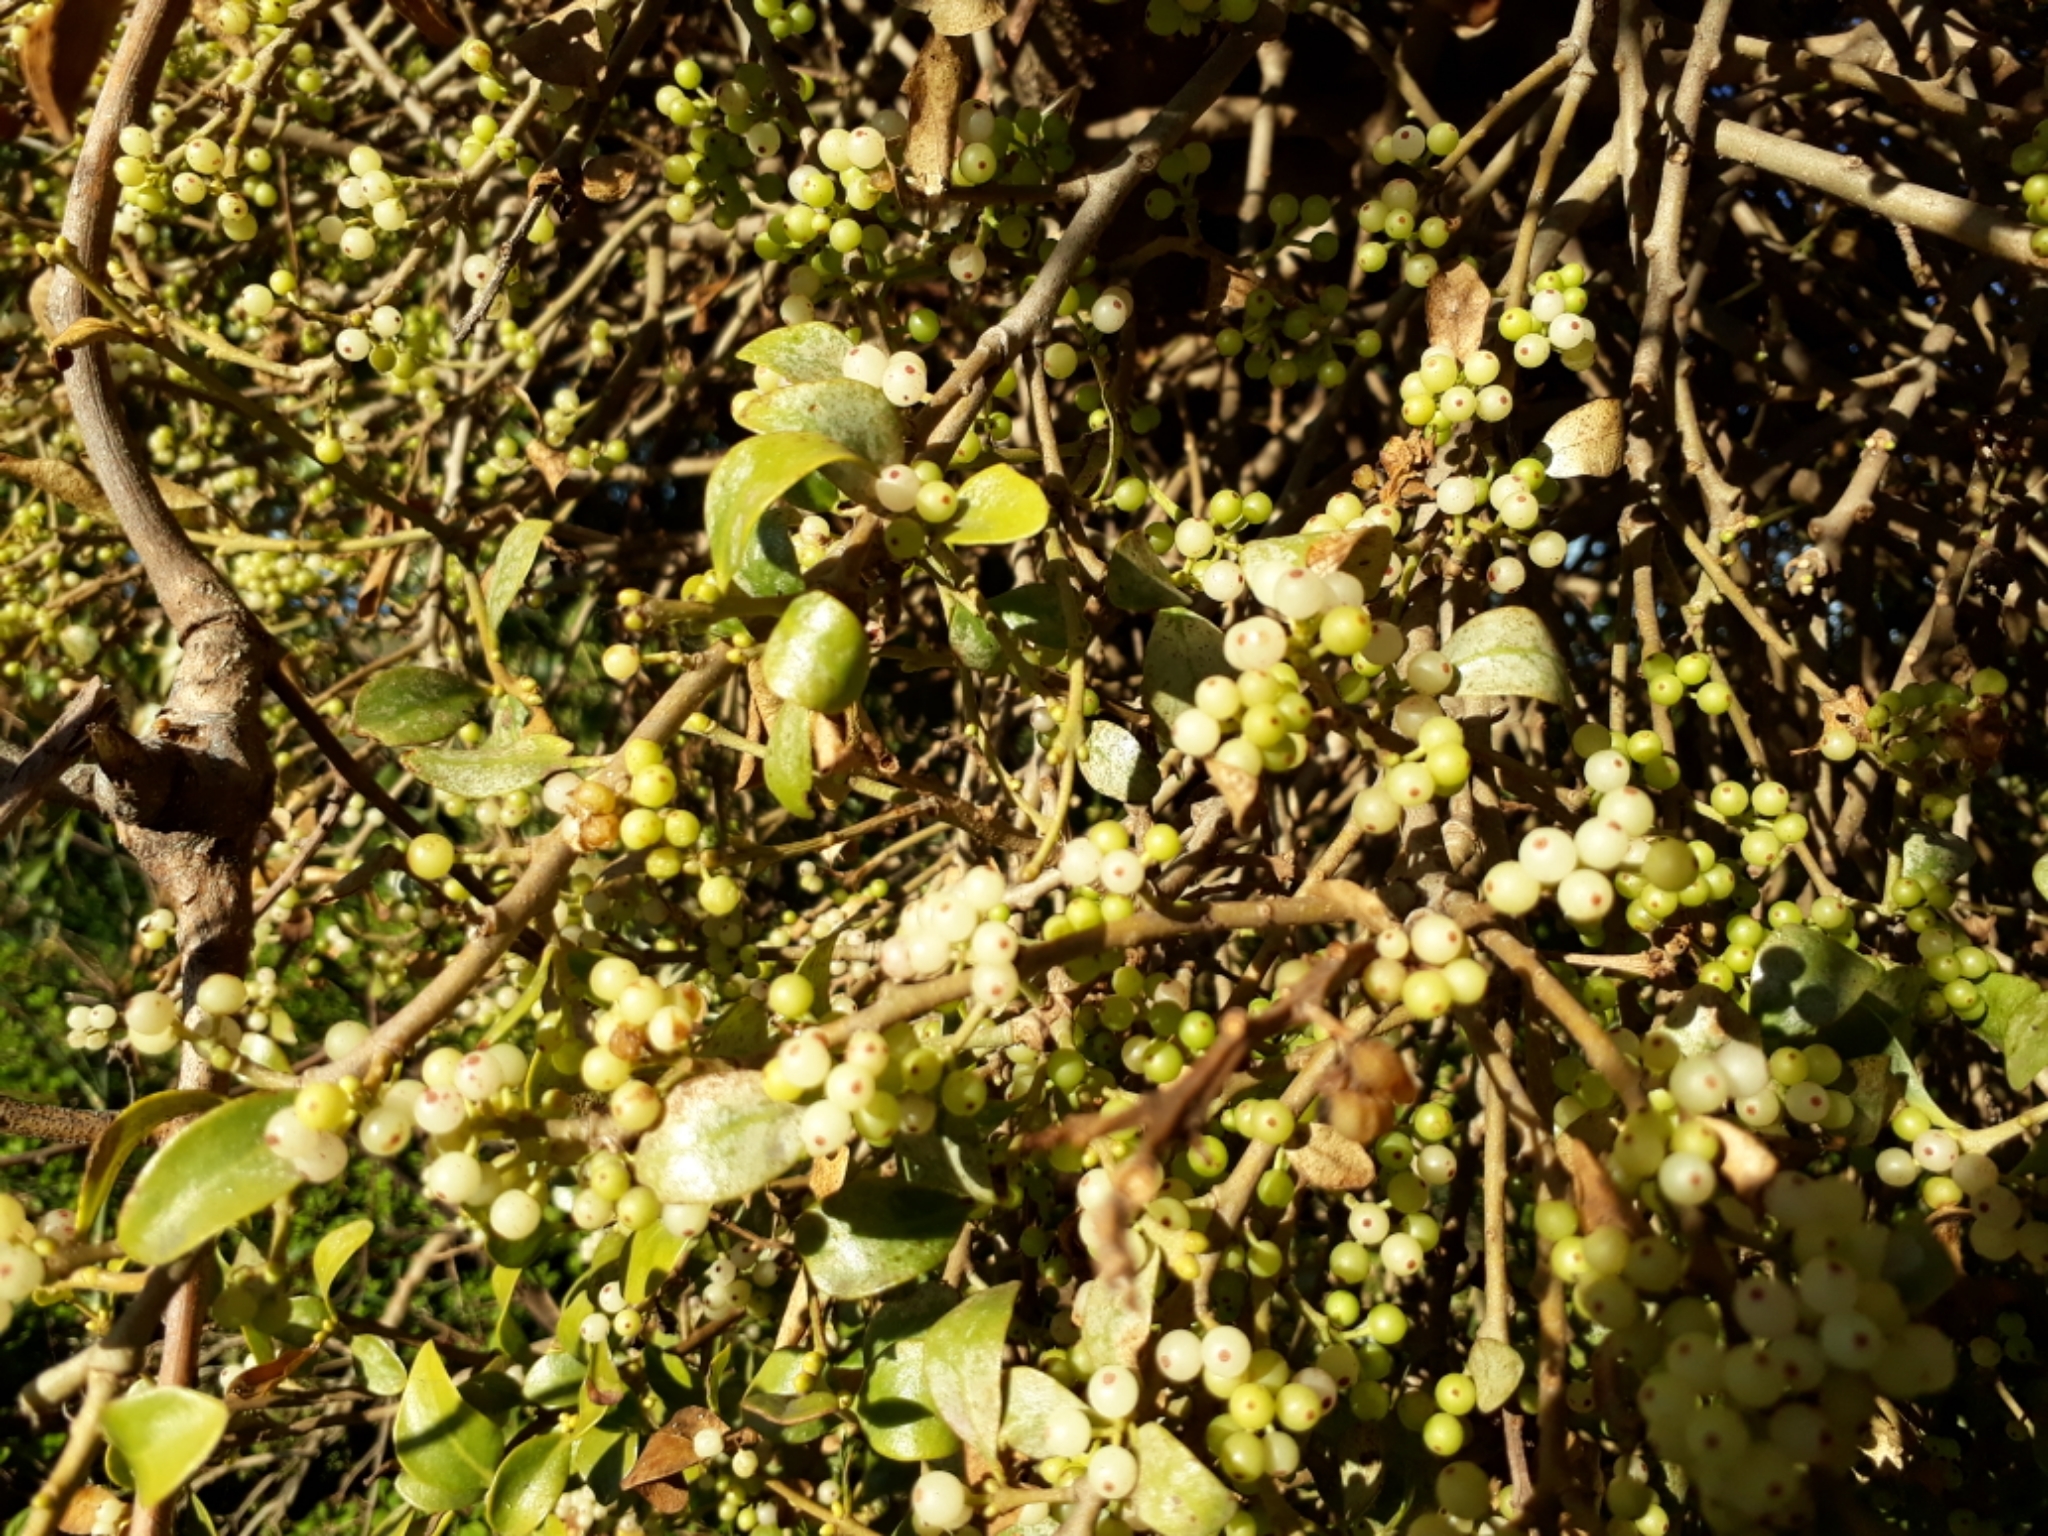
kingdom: Plantae
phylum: Tracheophyta
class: Magnoliopsida
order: Santalales
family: Loranthaceae
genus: Tupeia
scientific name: Tupeia antarctica
